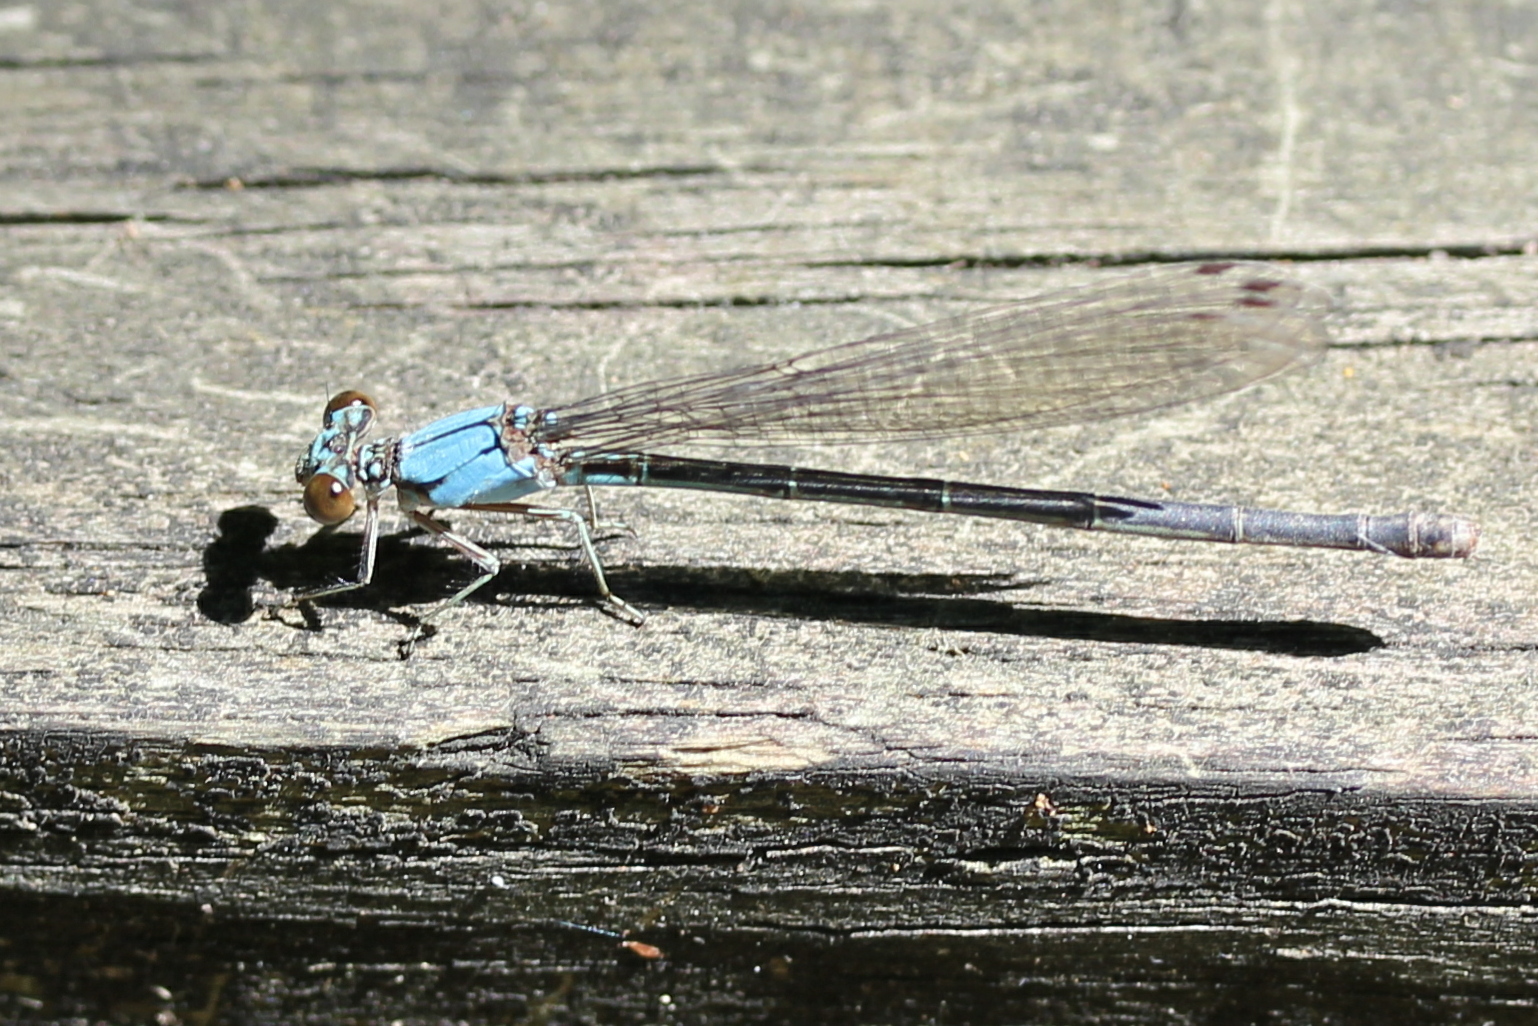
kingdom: Animalia
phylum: Arthropoda
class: Insecta
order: Odonata
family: Coenagrionidae
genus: Argia
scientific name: Argia apicalis
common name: Blue-fronted dancer
